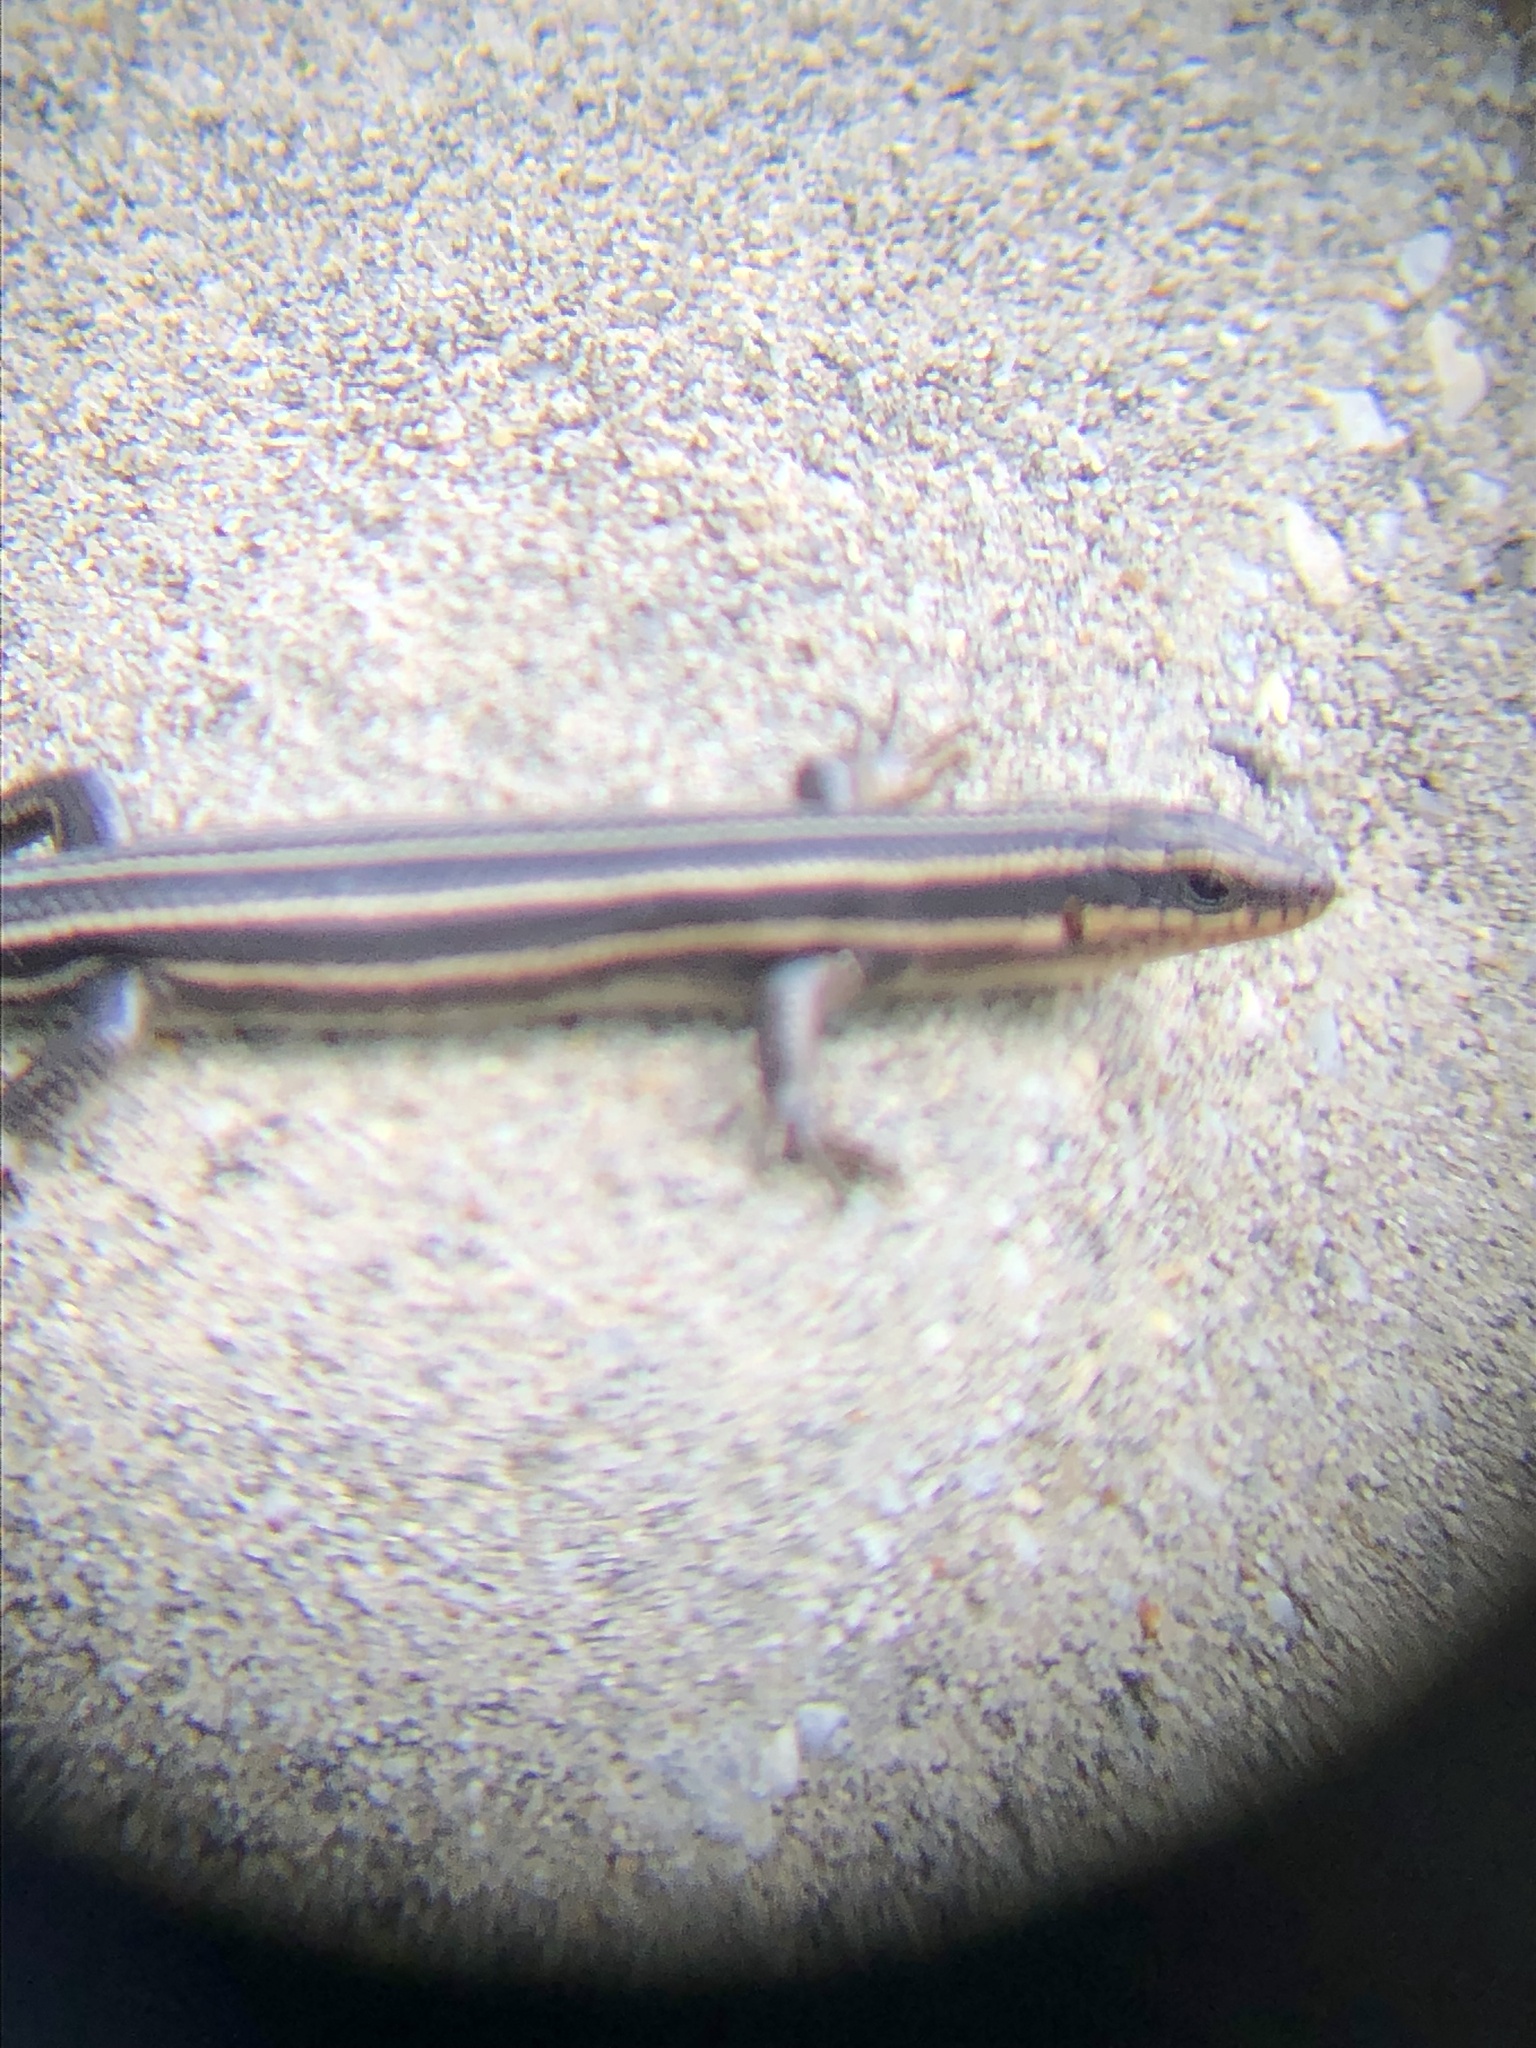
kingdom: Animalia
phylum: Chordata
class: Squamata
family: Scincidae
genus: Plestiodon
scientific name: Plestiodon fasciatus
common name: Five-lined skink
